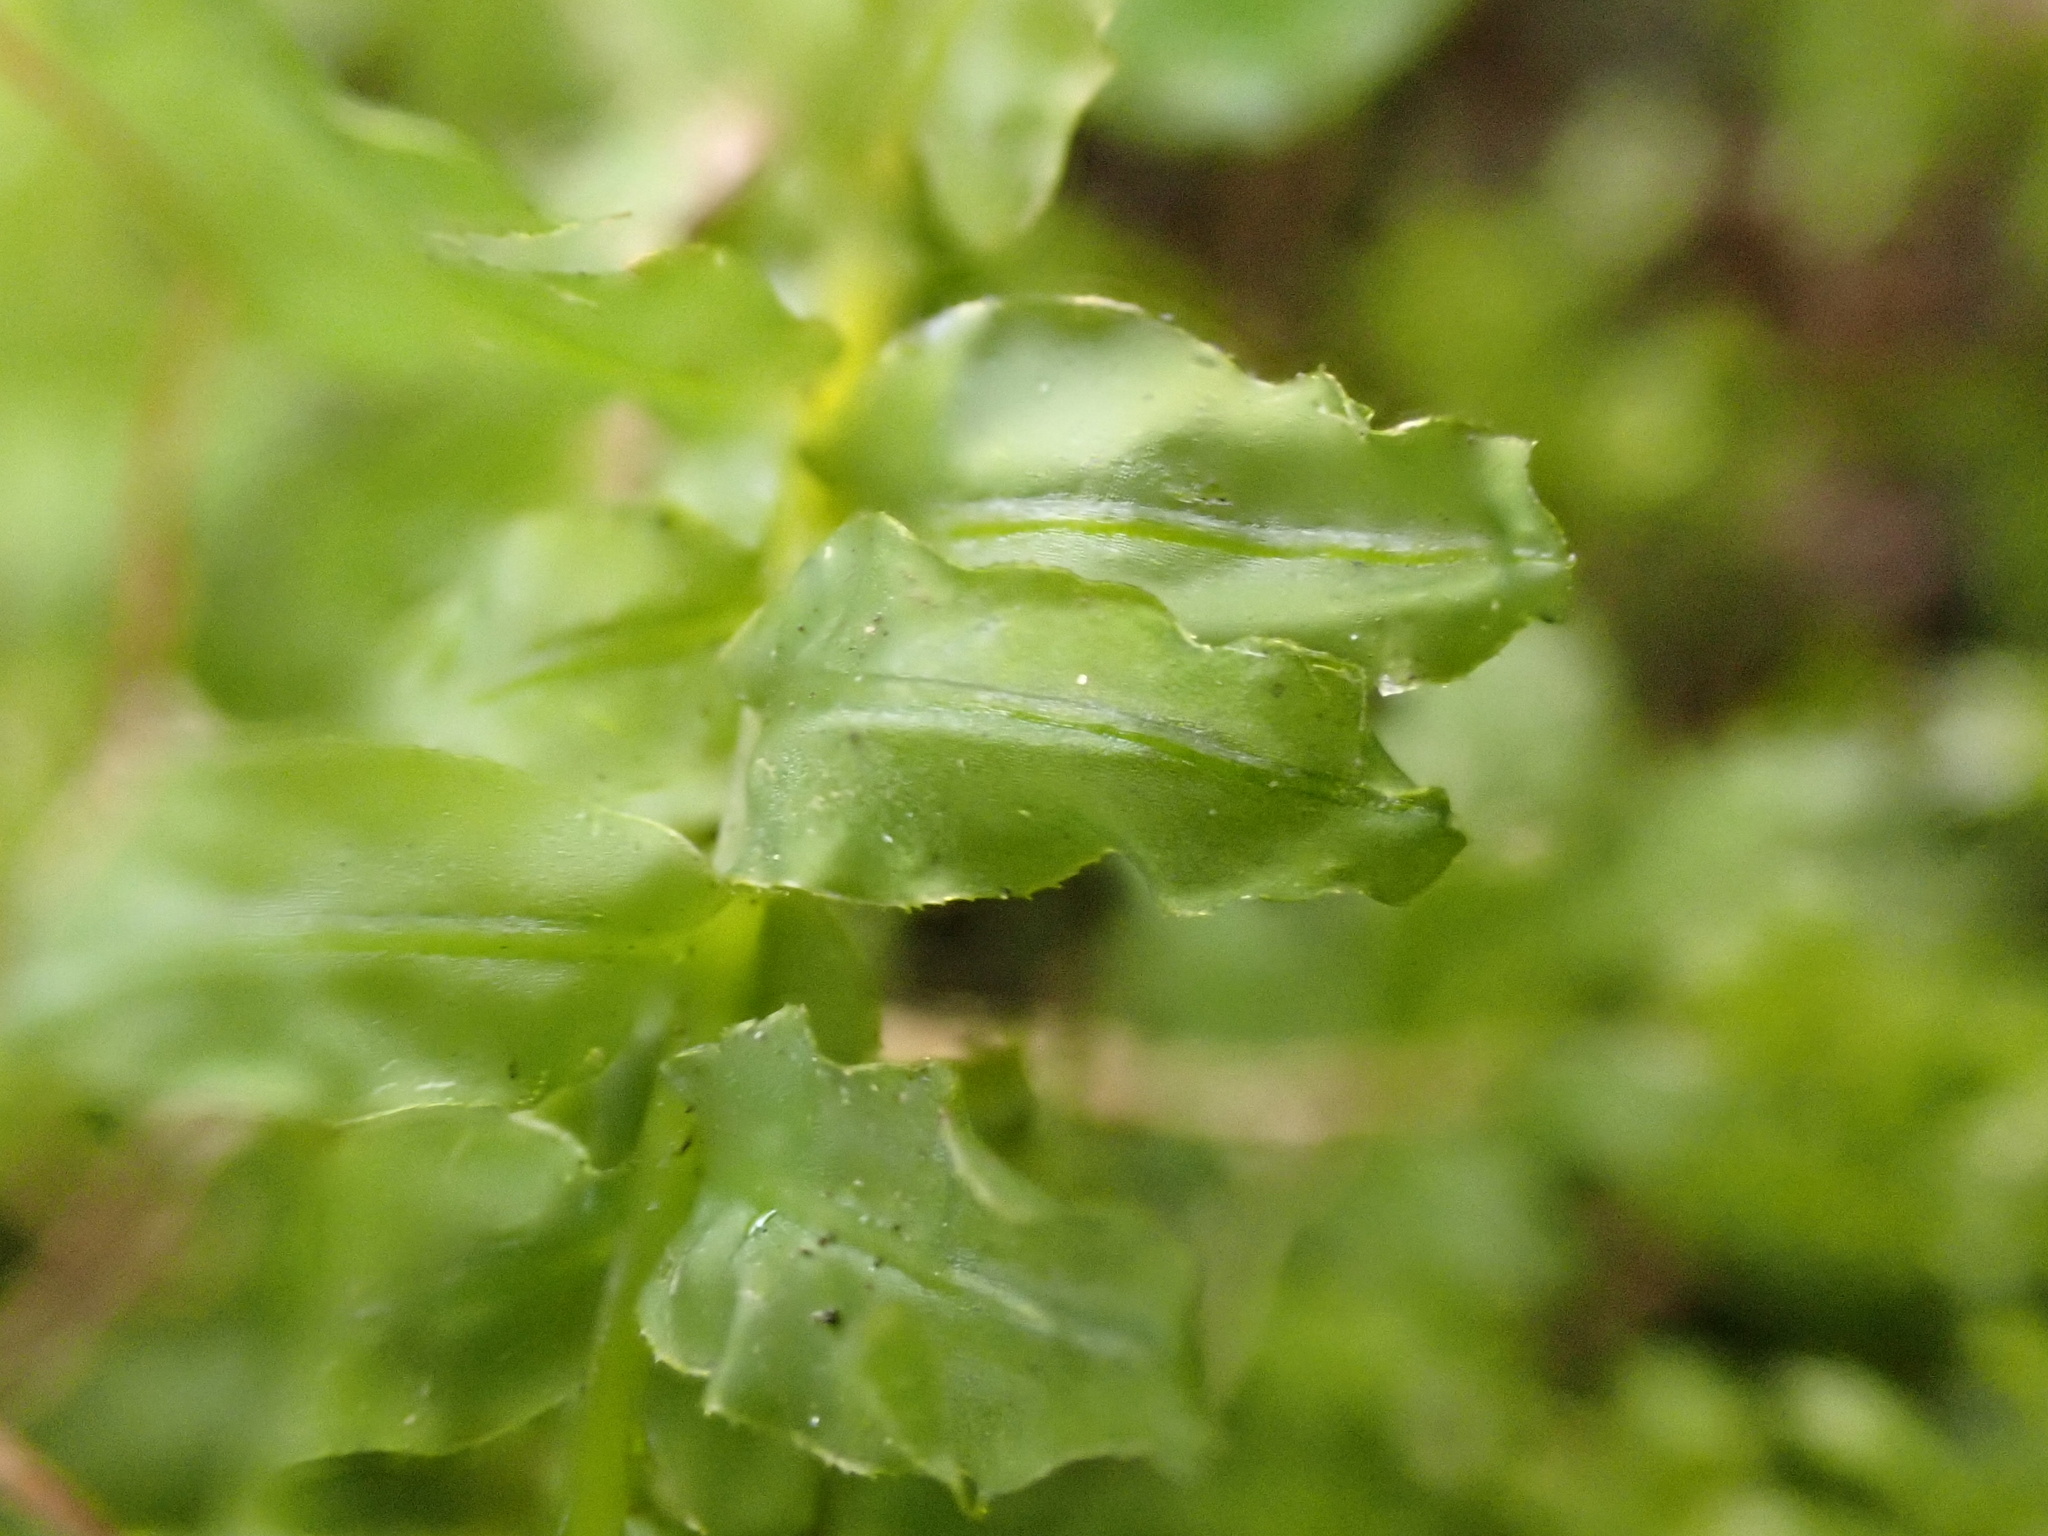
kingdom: Plantae
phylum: Bryophyta
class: Bryopsida
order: Bryales
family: Mniaceae
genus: Plagiomnium
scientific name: Plagiomnium undulatum
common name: Hart's-tongue thyme-moss
